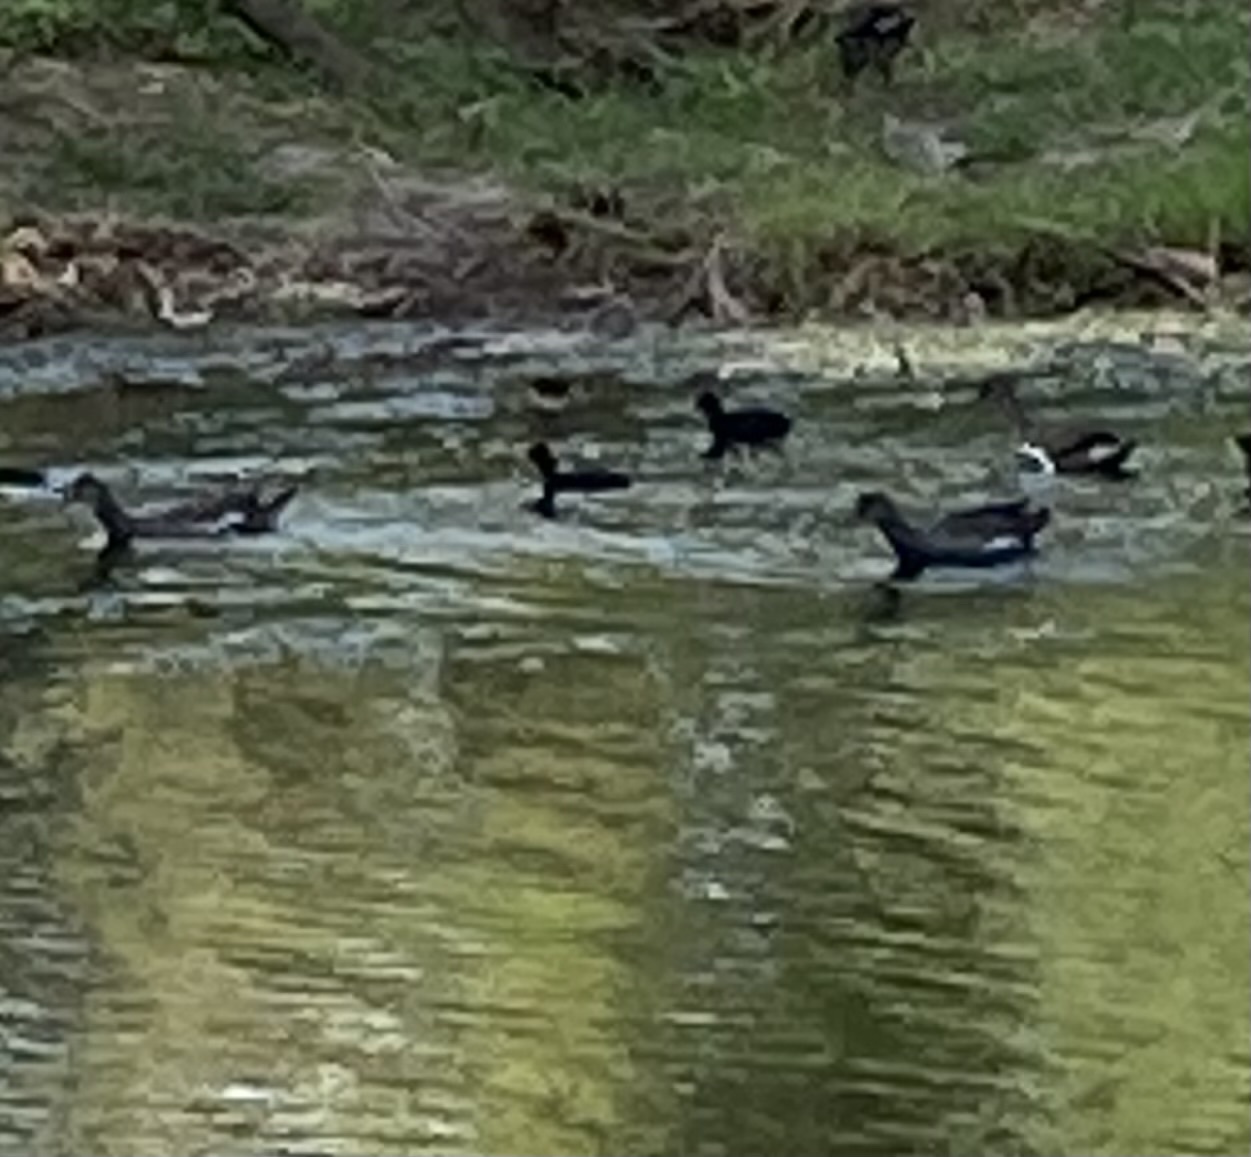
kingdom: Animalia
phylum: Chordata
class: Aves
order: Gruiformes
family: Rallidae
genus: Gallinula
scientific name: Gallinula chloropus
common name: Common moorhen
